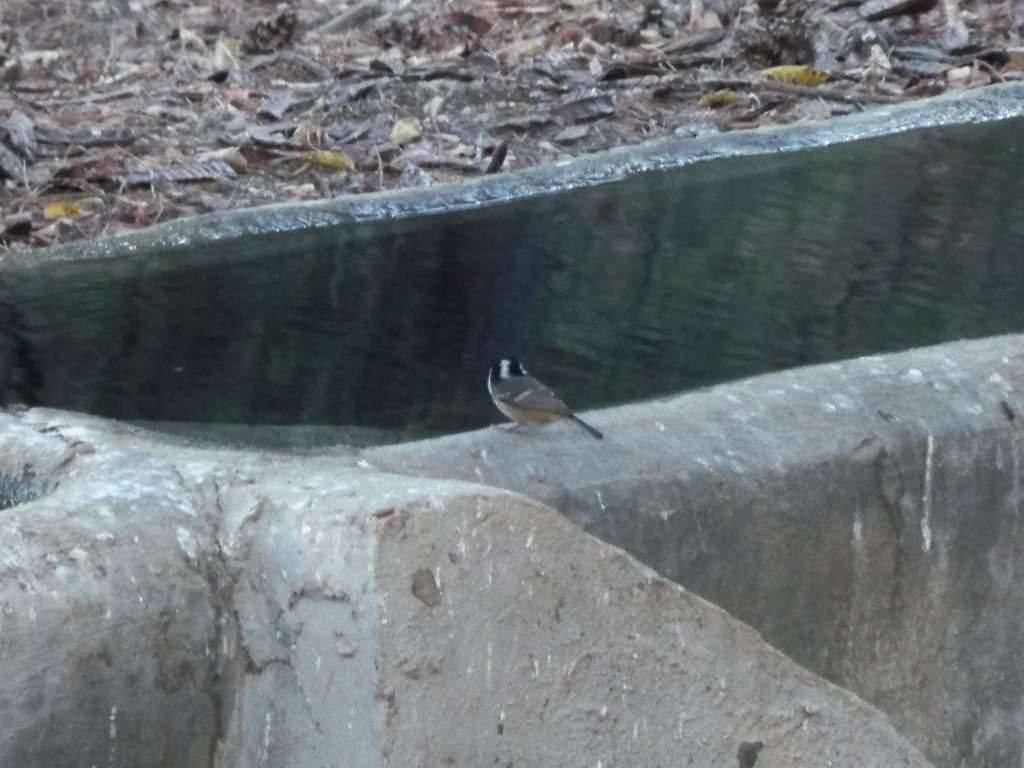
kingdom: Animalia
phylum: Chordata
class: Aves
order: Passeriformes
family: Paridae
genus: Periparus
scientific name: Periparus ater
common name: Coal tit
